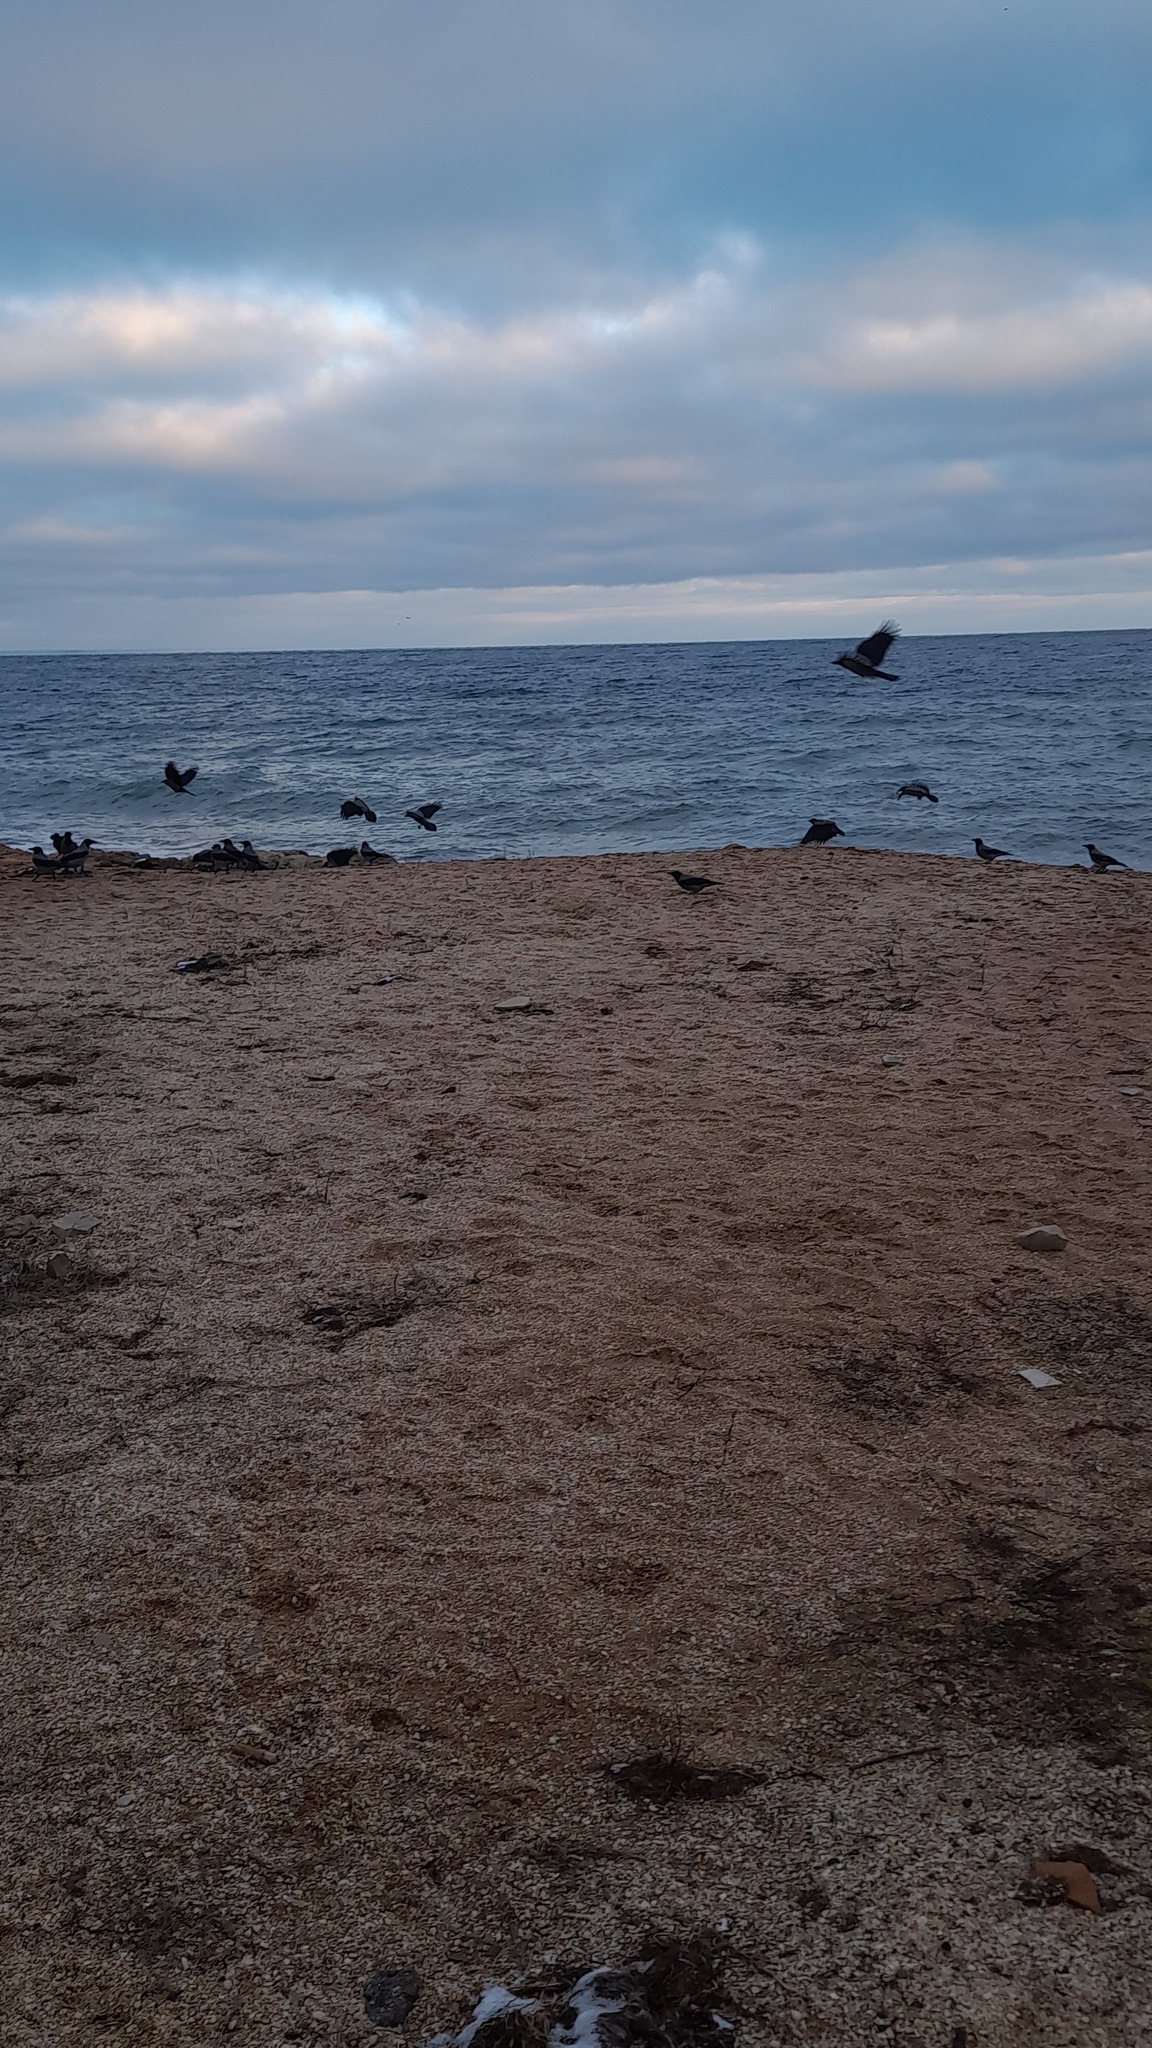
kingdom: Animalia
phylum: Chordata
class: Aves
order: Passeriformes
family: Corvidae
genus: Corvus
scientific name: Corvus cornix
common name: Hooded crow
